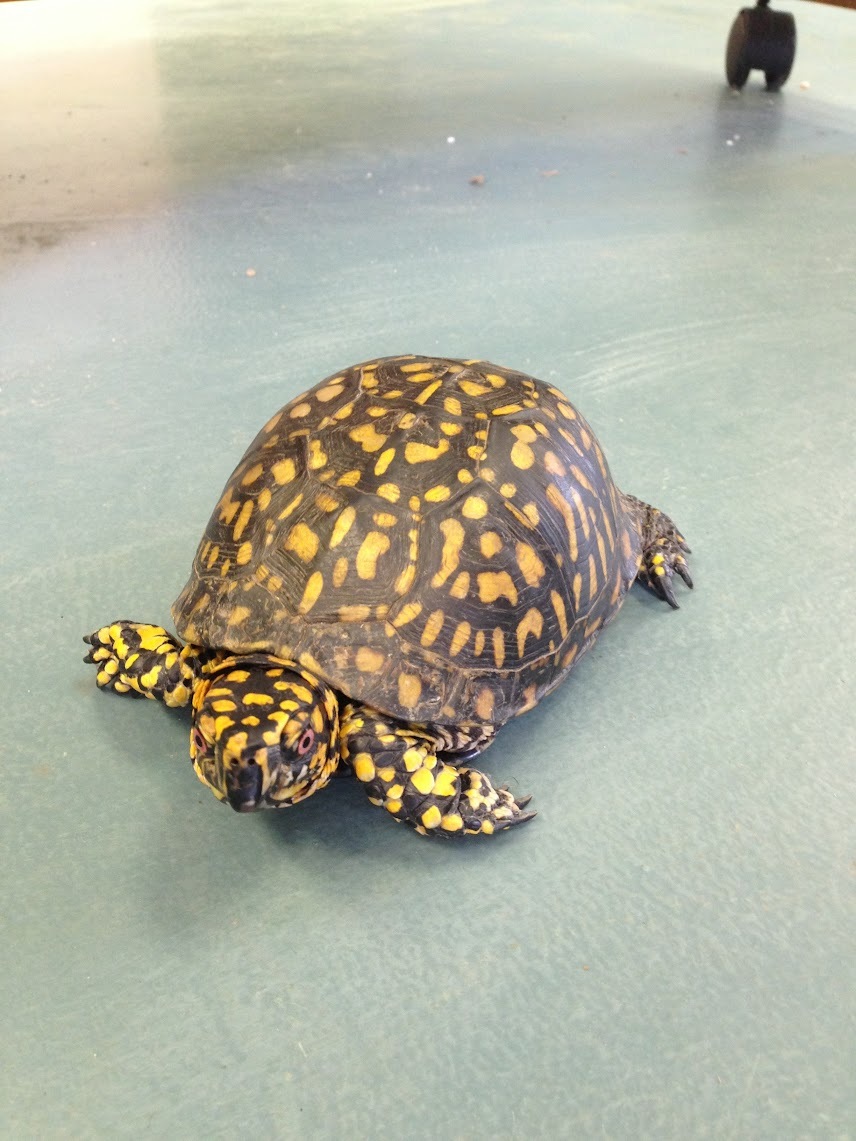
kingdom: Animalia
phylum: Chordata
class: Testudines
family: Emydidae
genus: Terrapene
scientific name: Terrapene carolina
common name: Common box turtle
